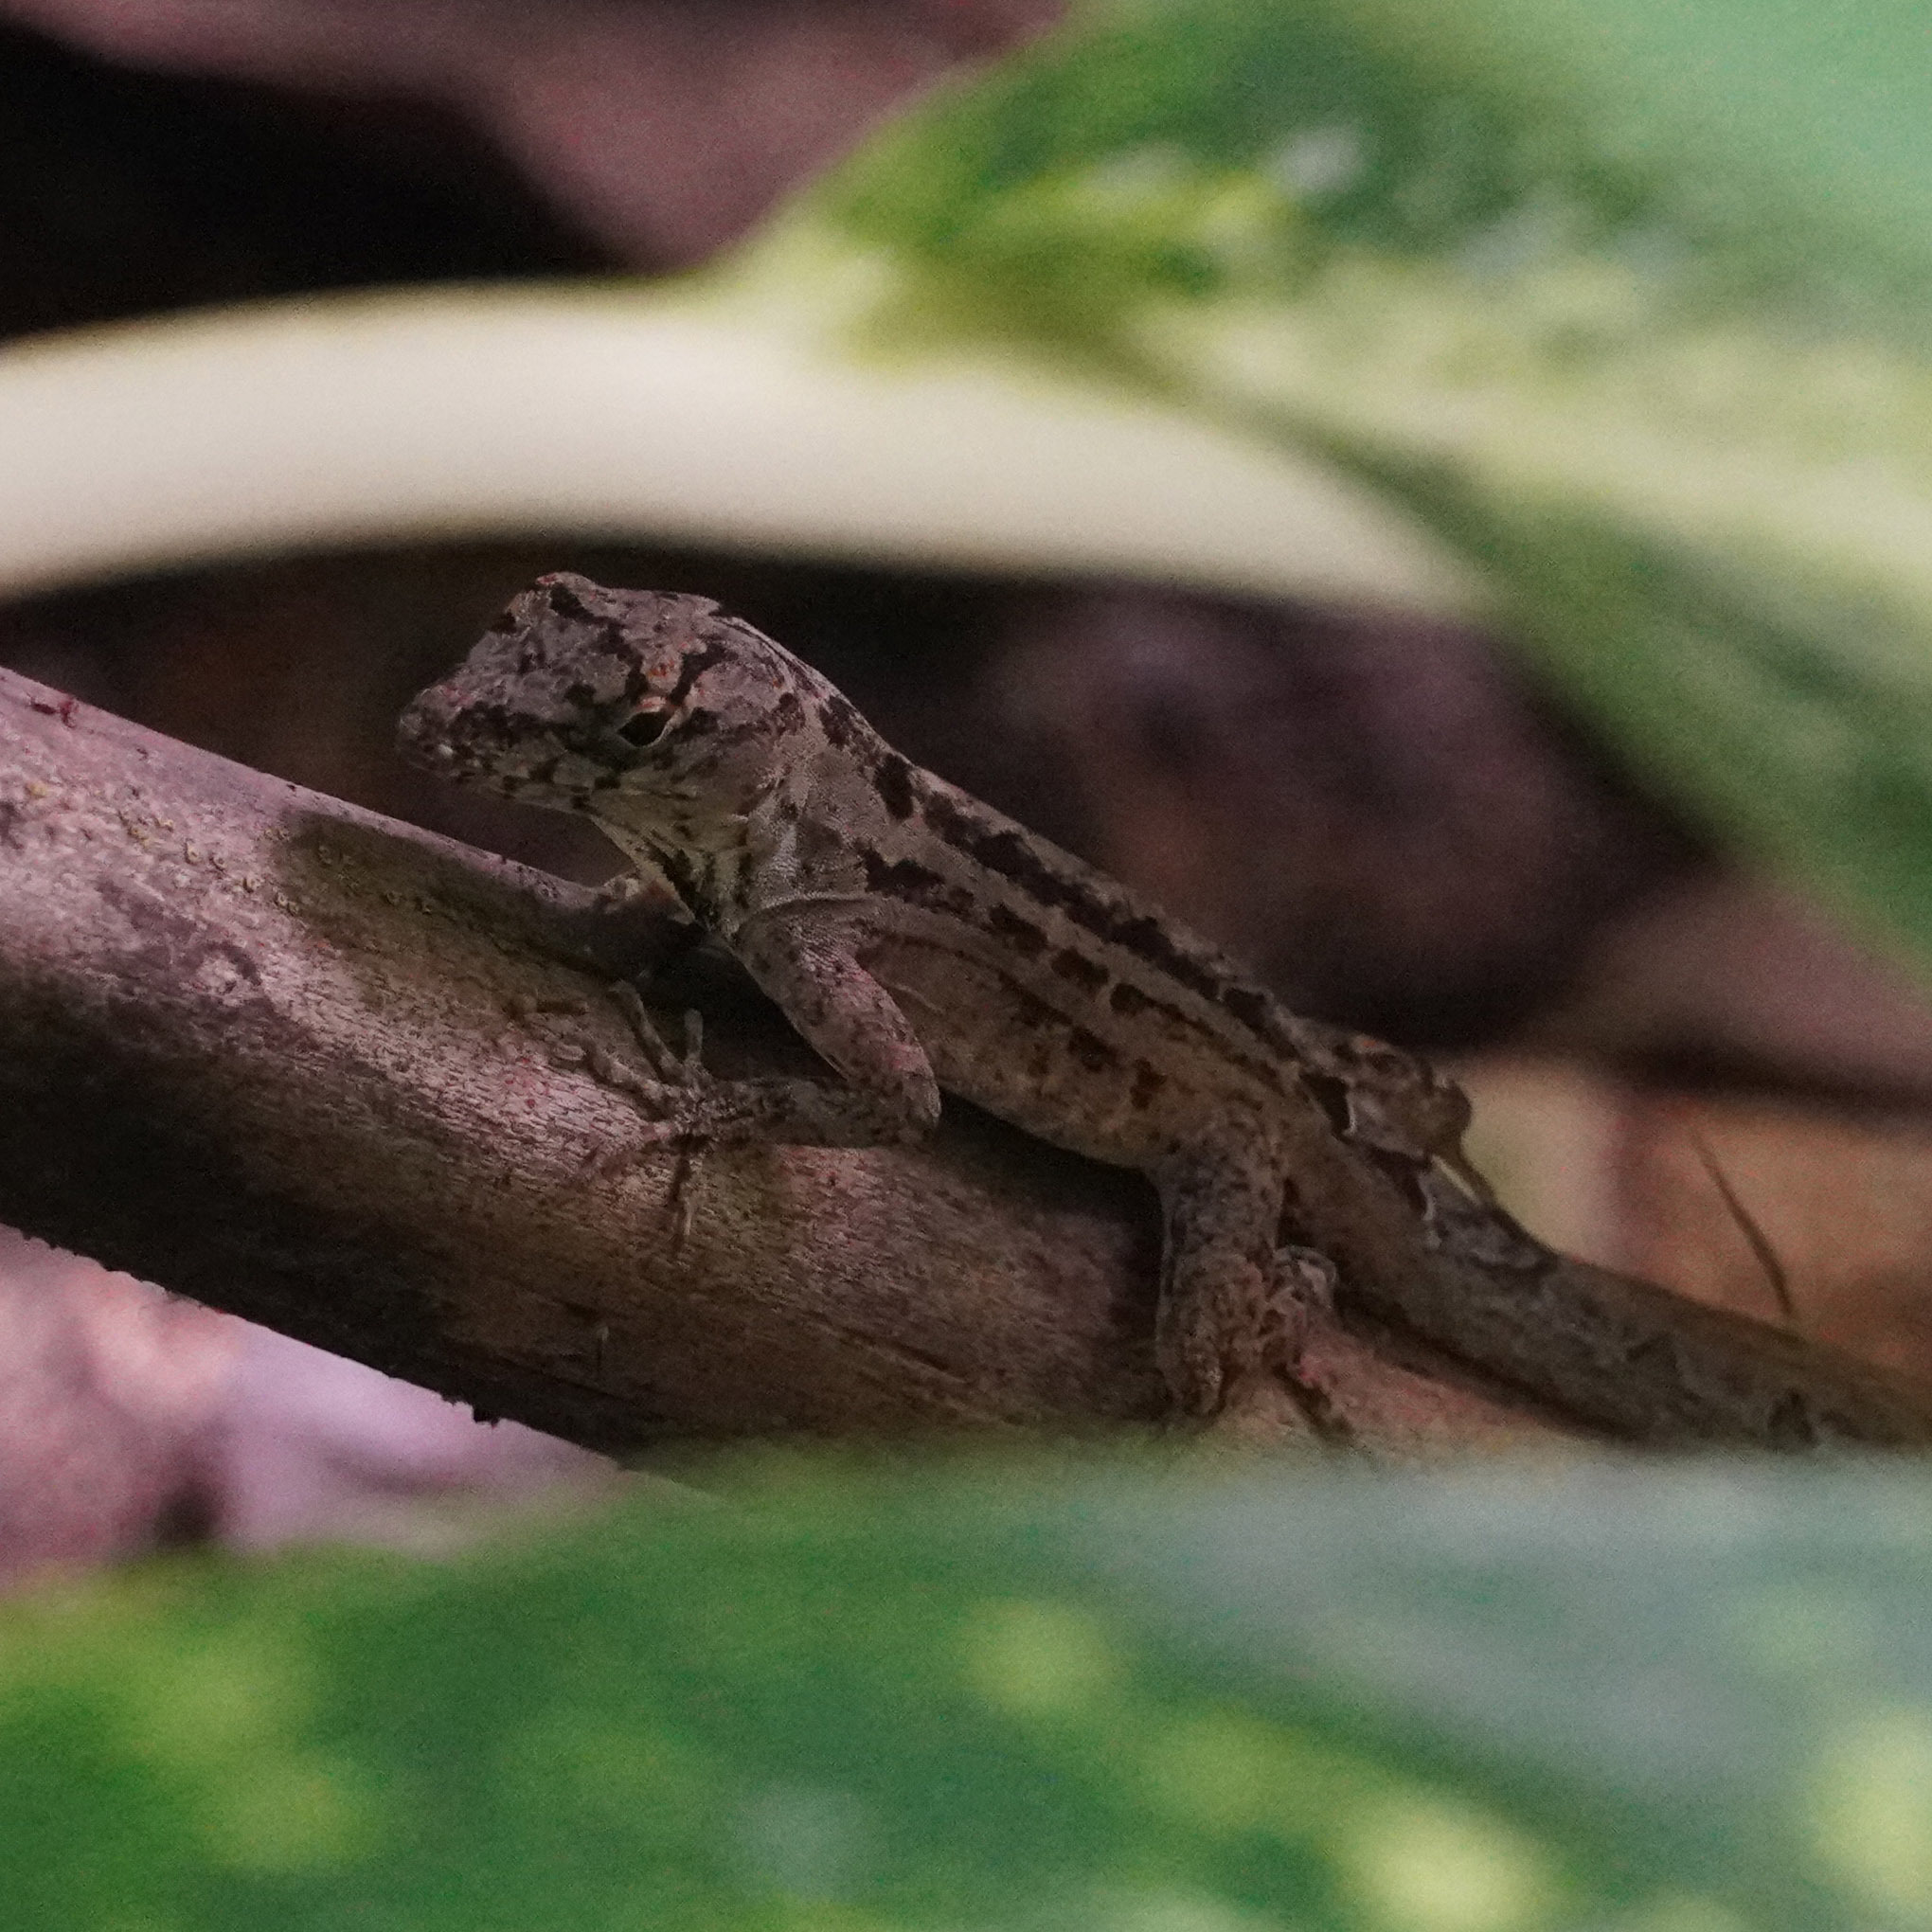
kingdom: Animalia
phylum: Chordata
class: Squamata
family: Dactyloidae
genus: Anolis
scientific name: Anolis sagrei
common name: Brown anole
